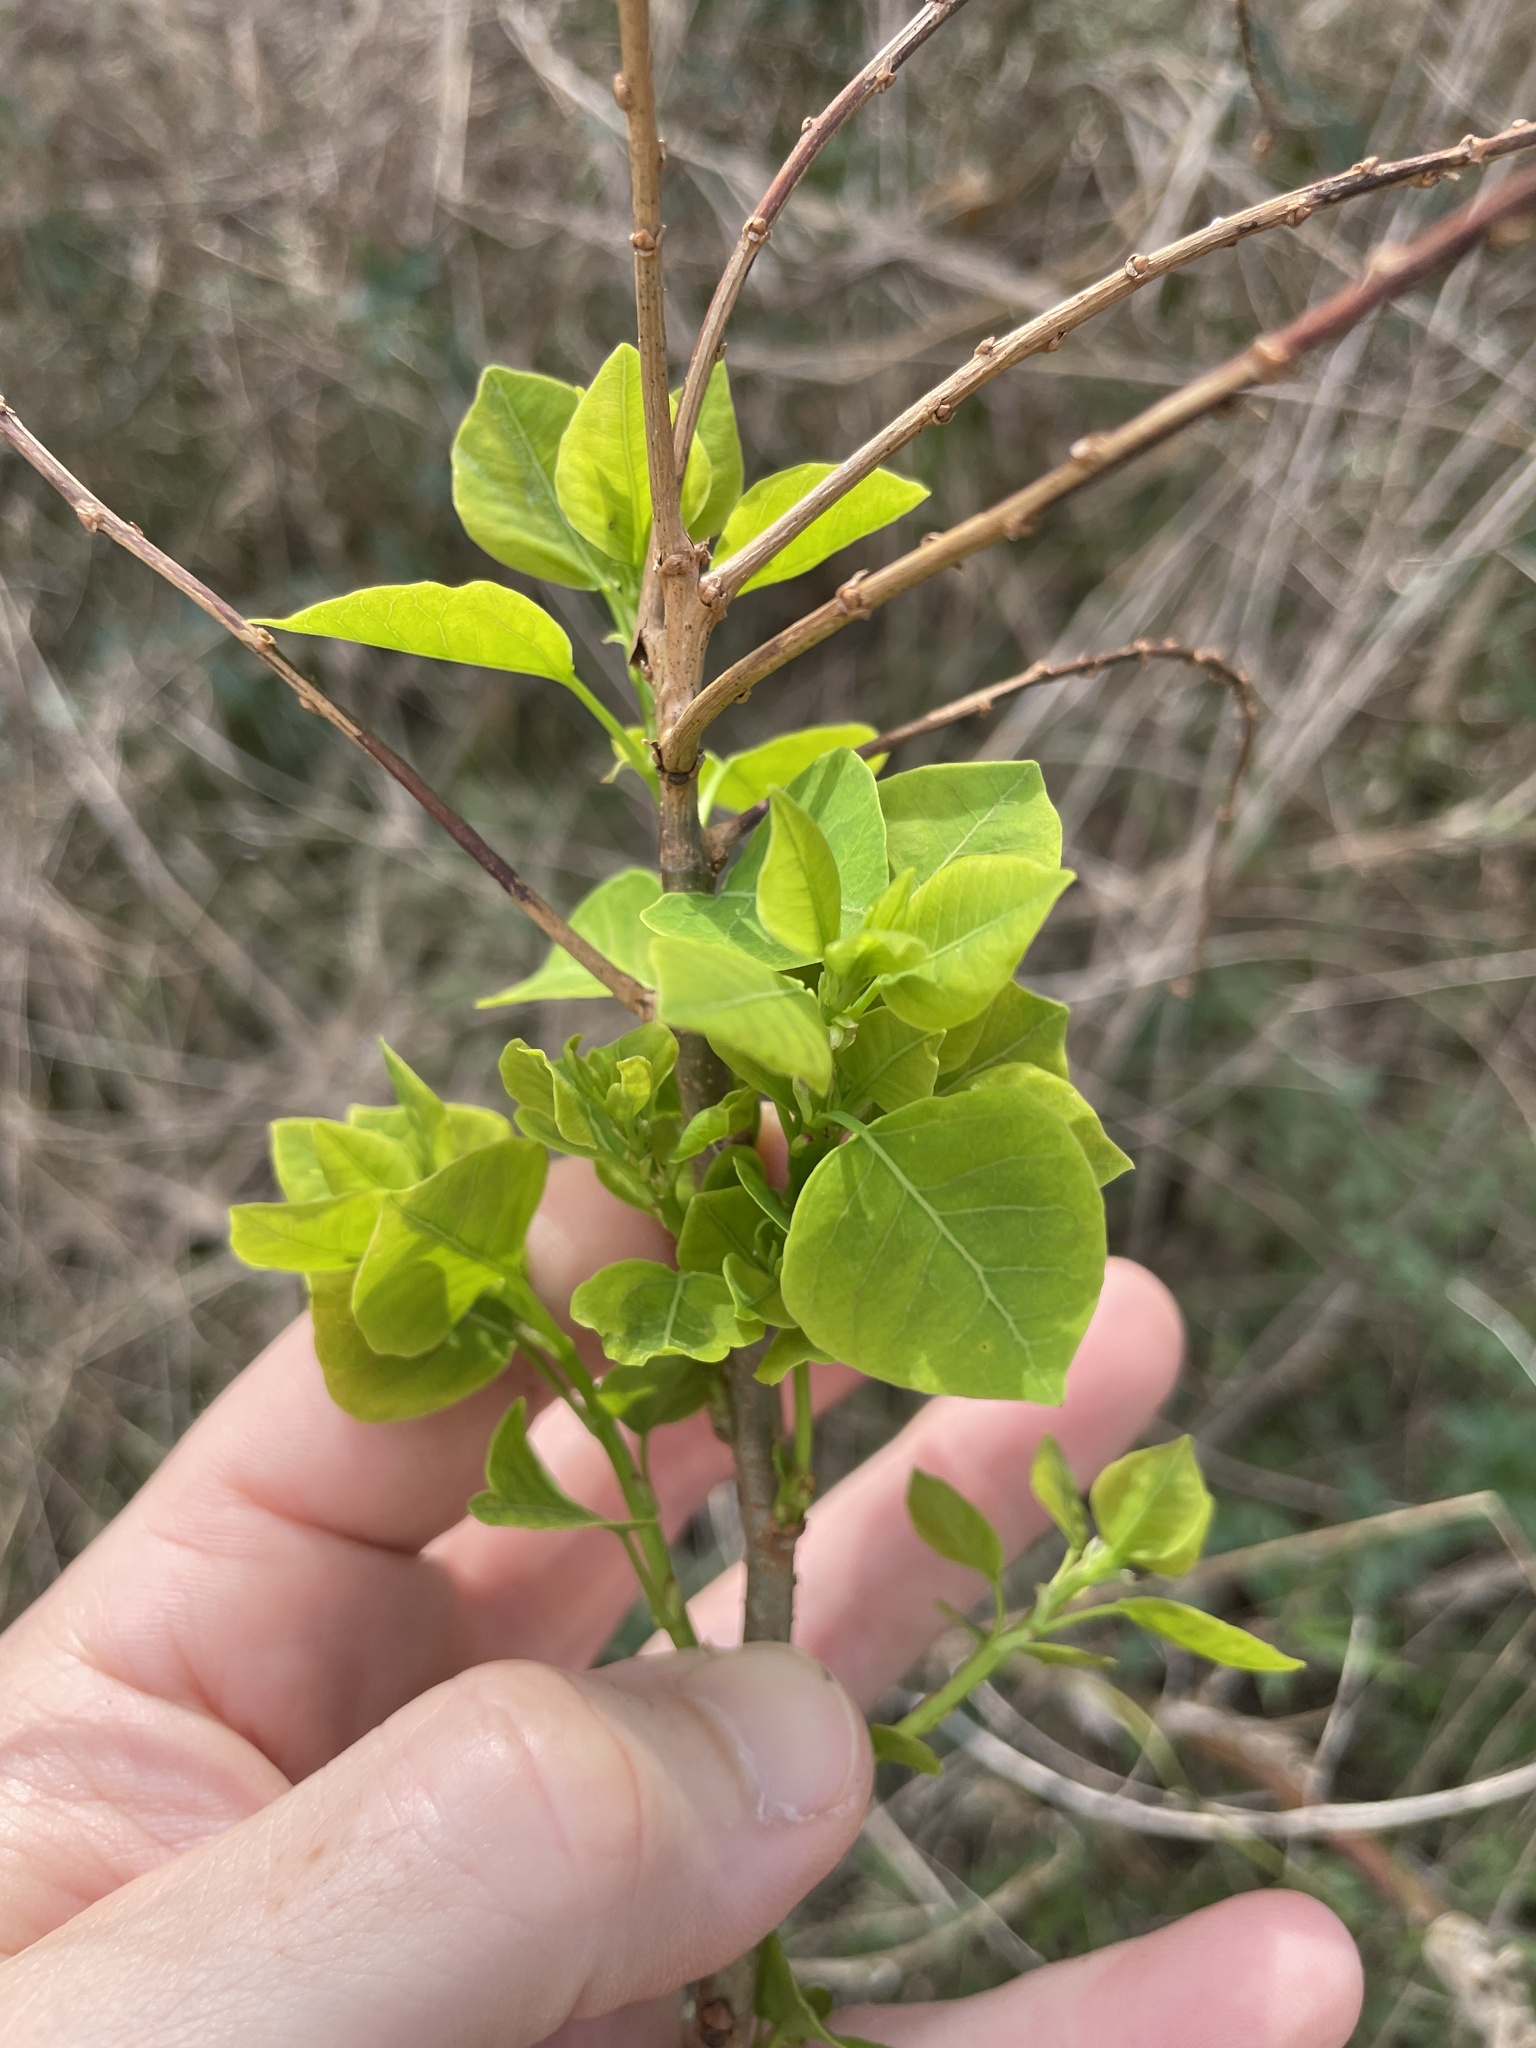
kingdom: Plantae
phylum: Tracheophyta
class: Magnoliopsida
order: Malpighiales
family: Euphorbiaceae
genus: Triadica
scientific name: Triadica sebifera
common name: Chinese tallow
